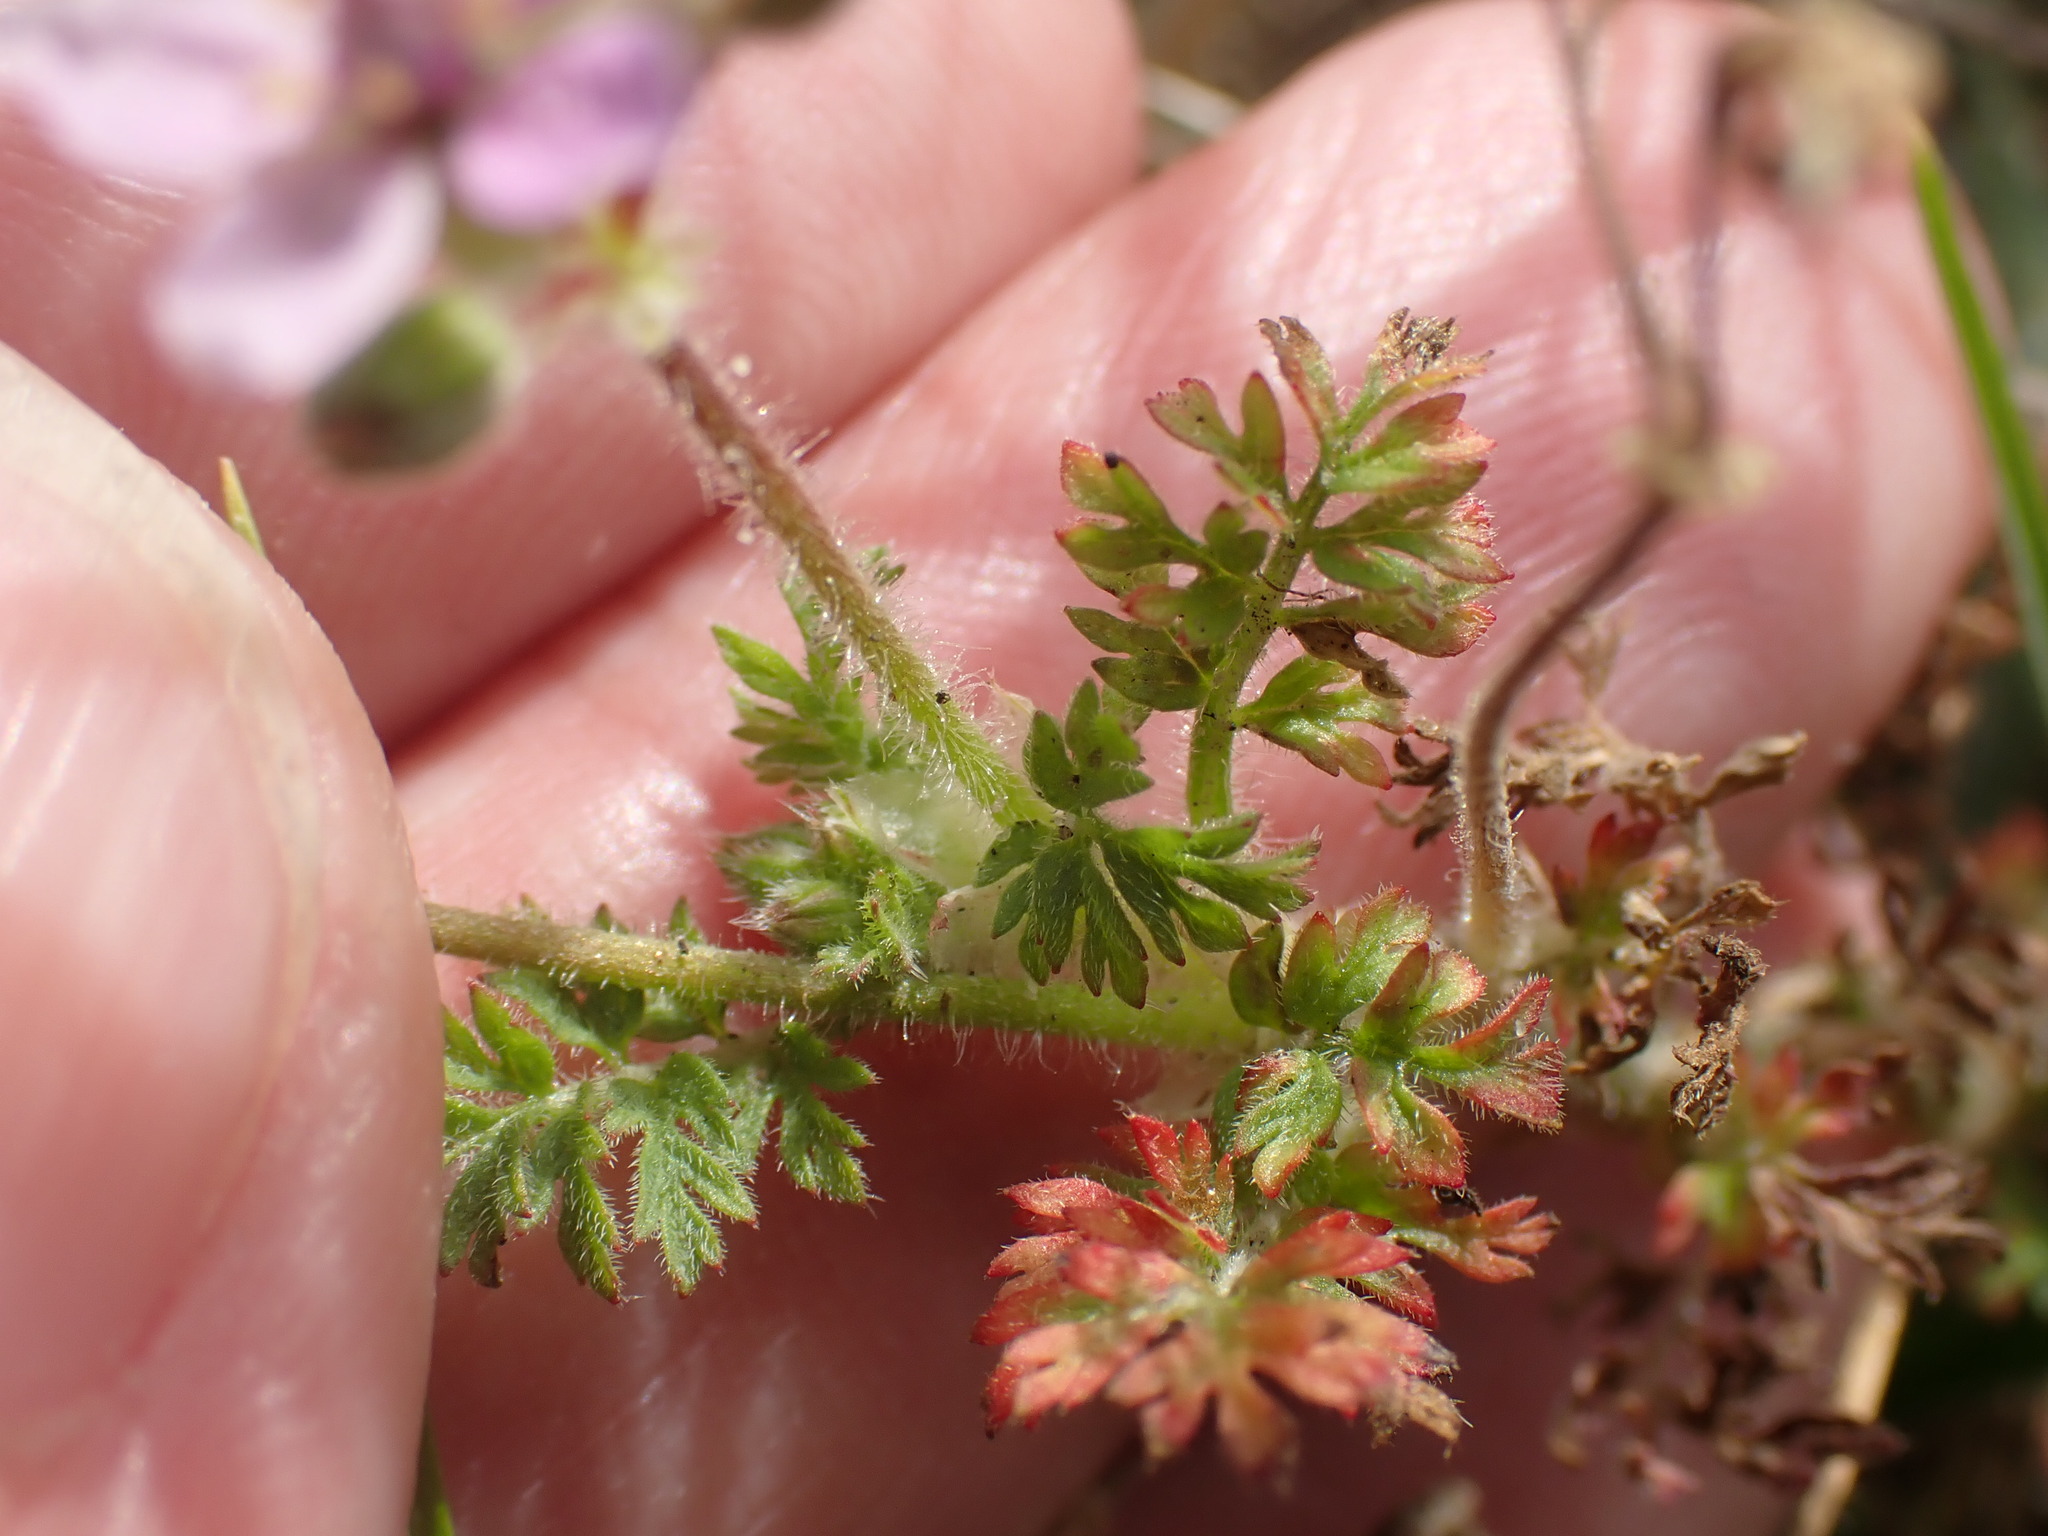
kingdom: Plantae
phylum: Tracheophyta
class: Magnoliopsida
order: Geraniales
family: Geraniaceae
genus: Erodium
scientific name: Erodium cicutarium
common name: Common stork's-bill
